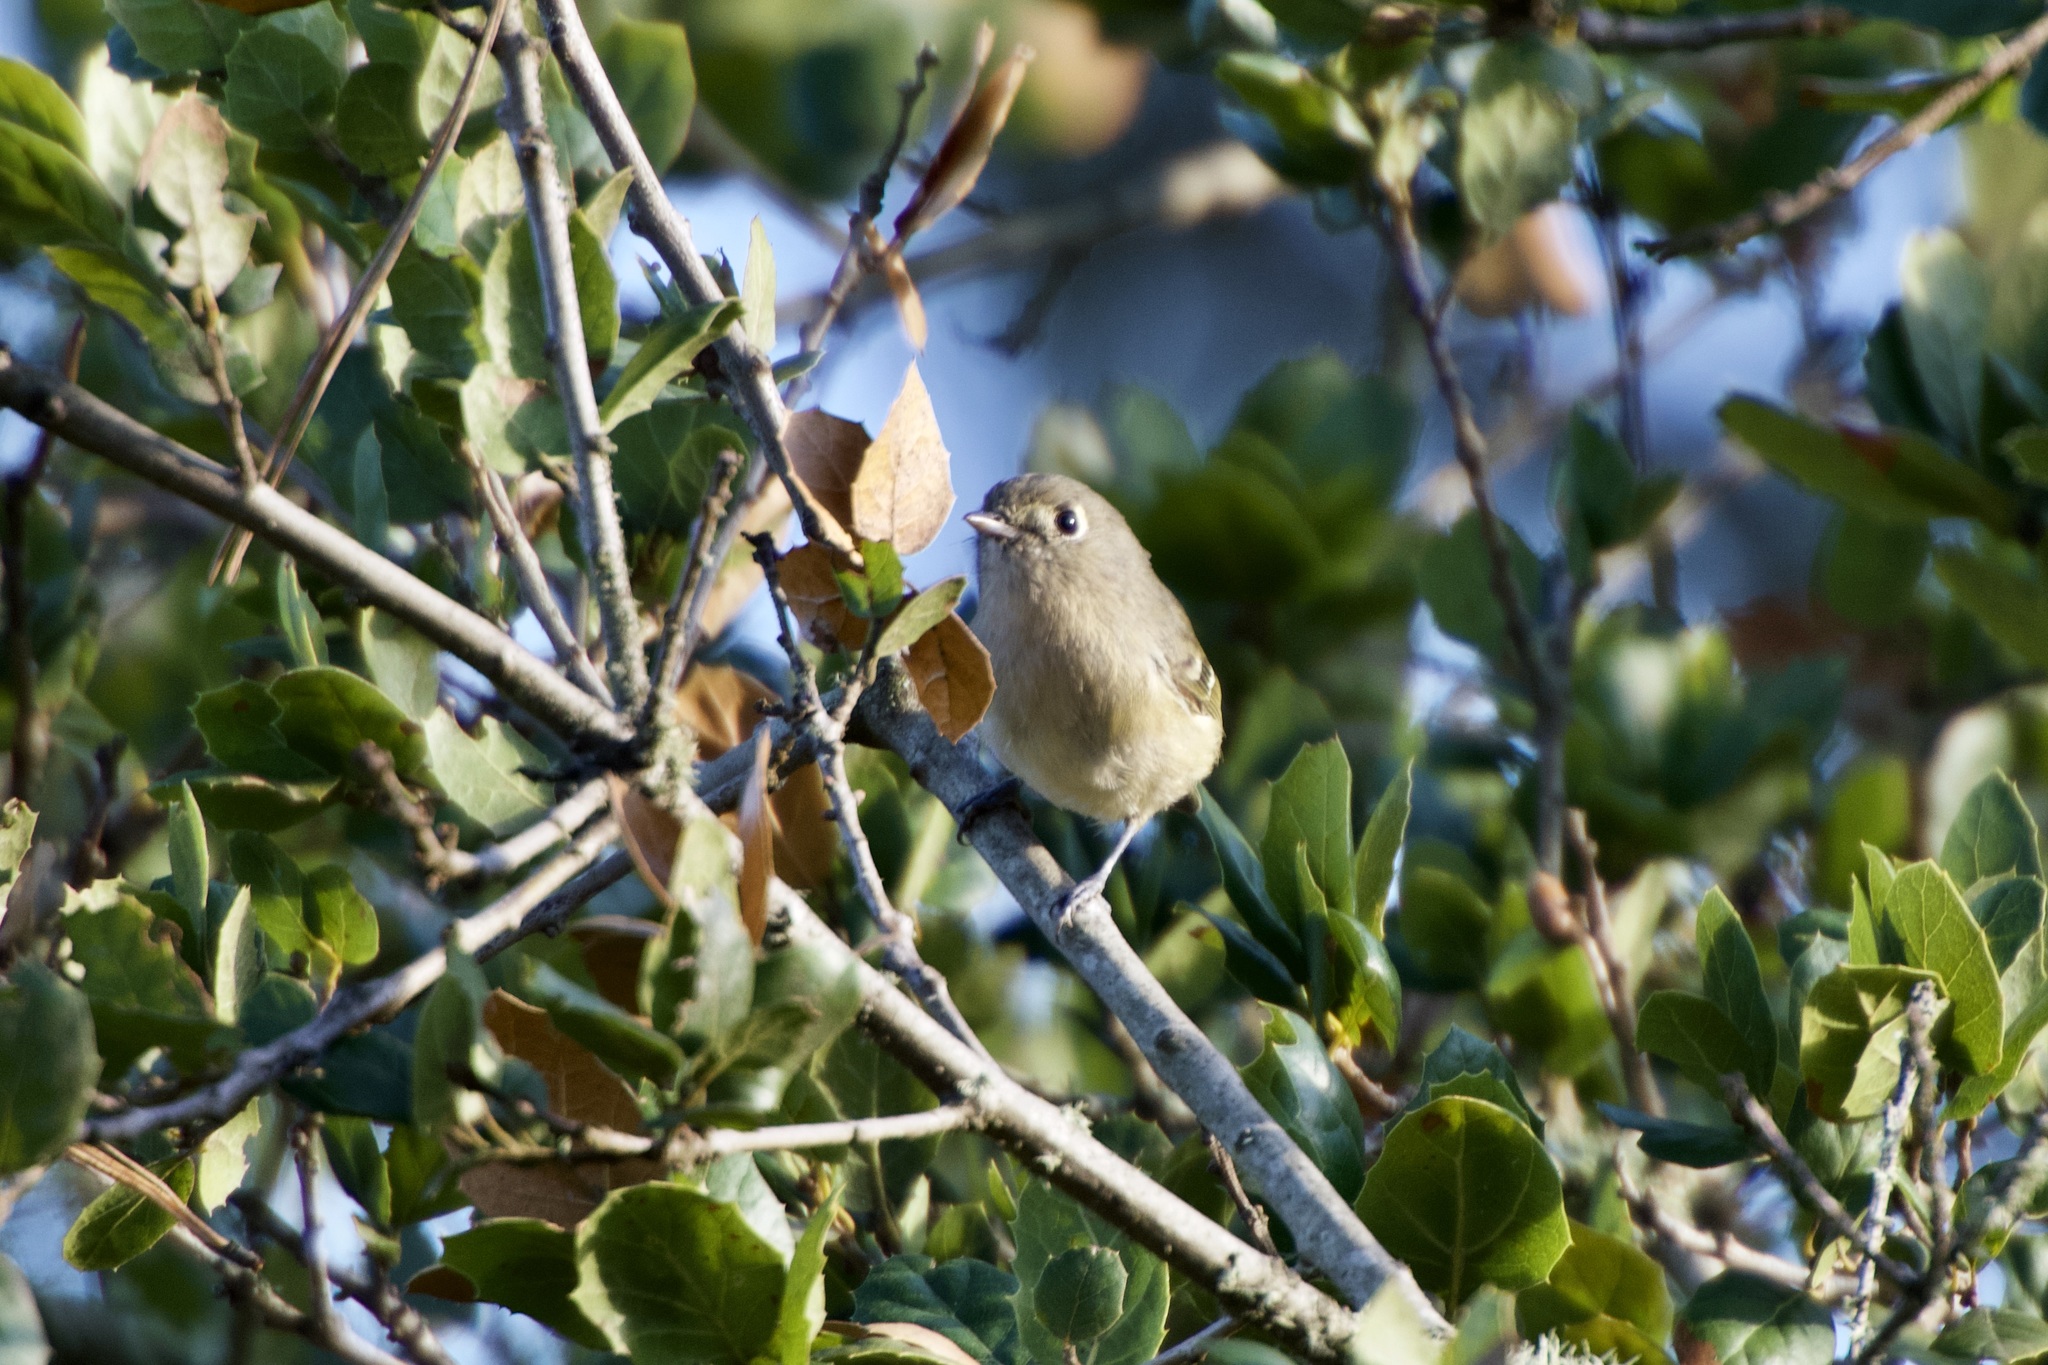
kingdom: Animalia
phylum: Chordata
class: Aves
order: Passeriformes
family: Vireonidae
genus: Vireo
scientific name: Vireo huttoni
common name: Hutton's vireo
